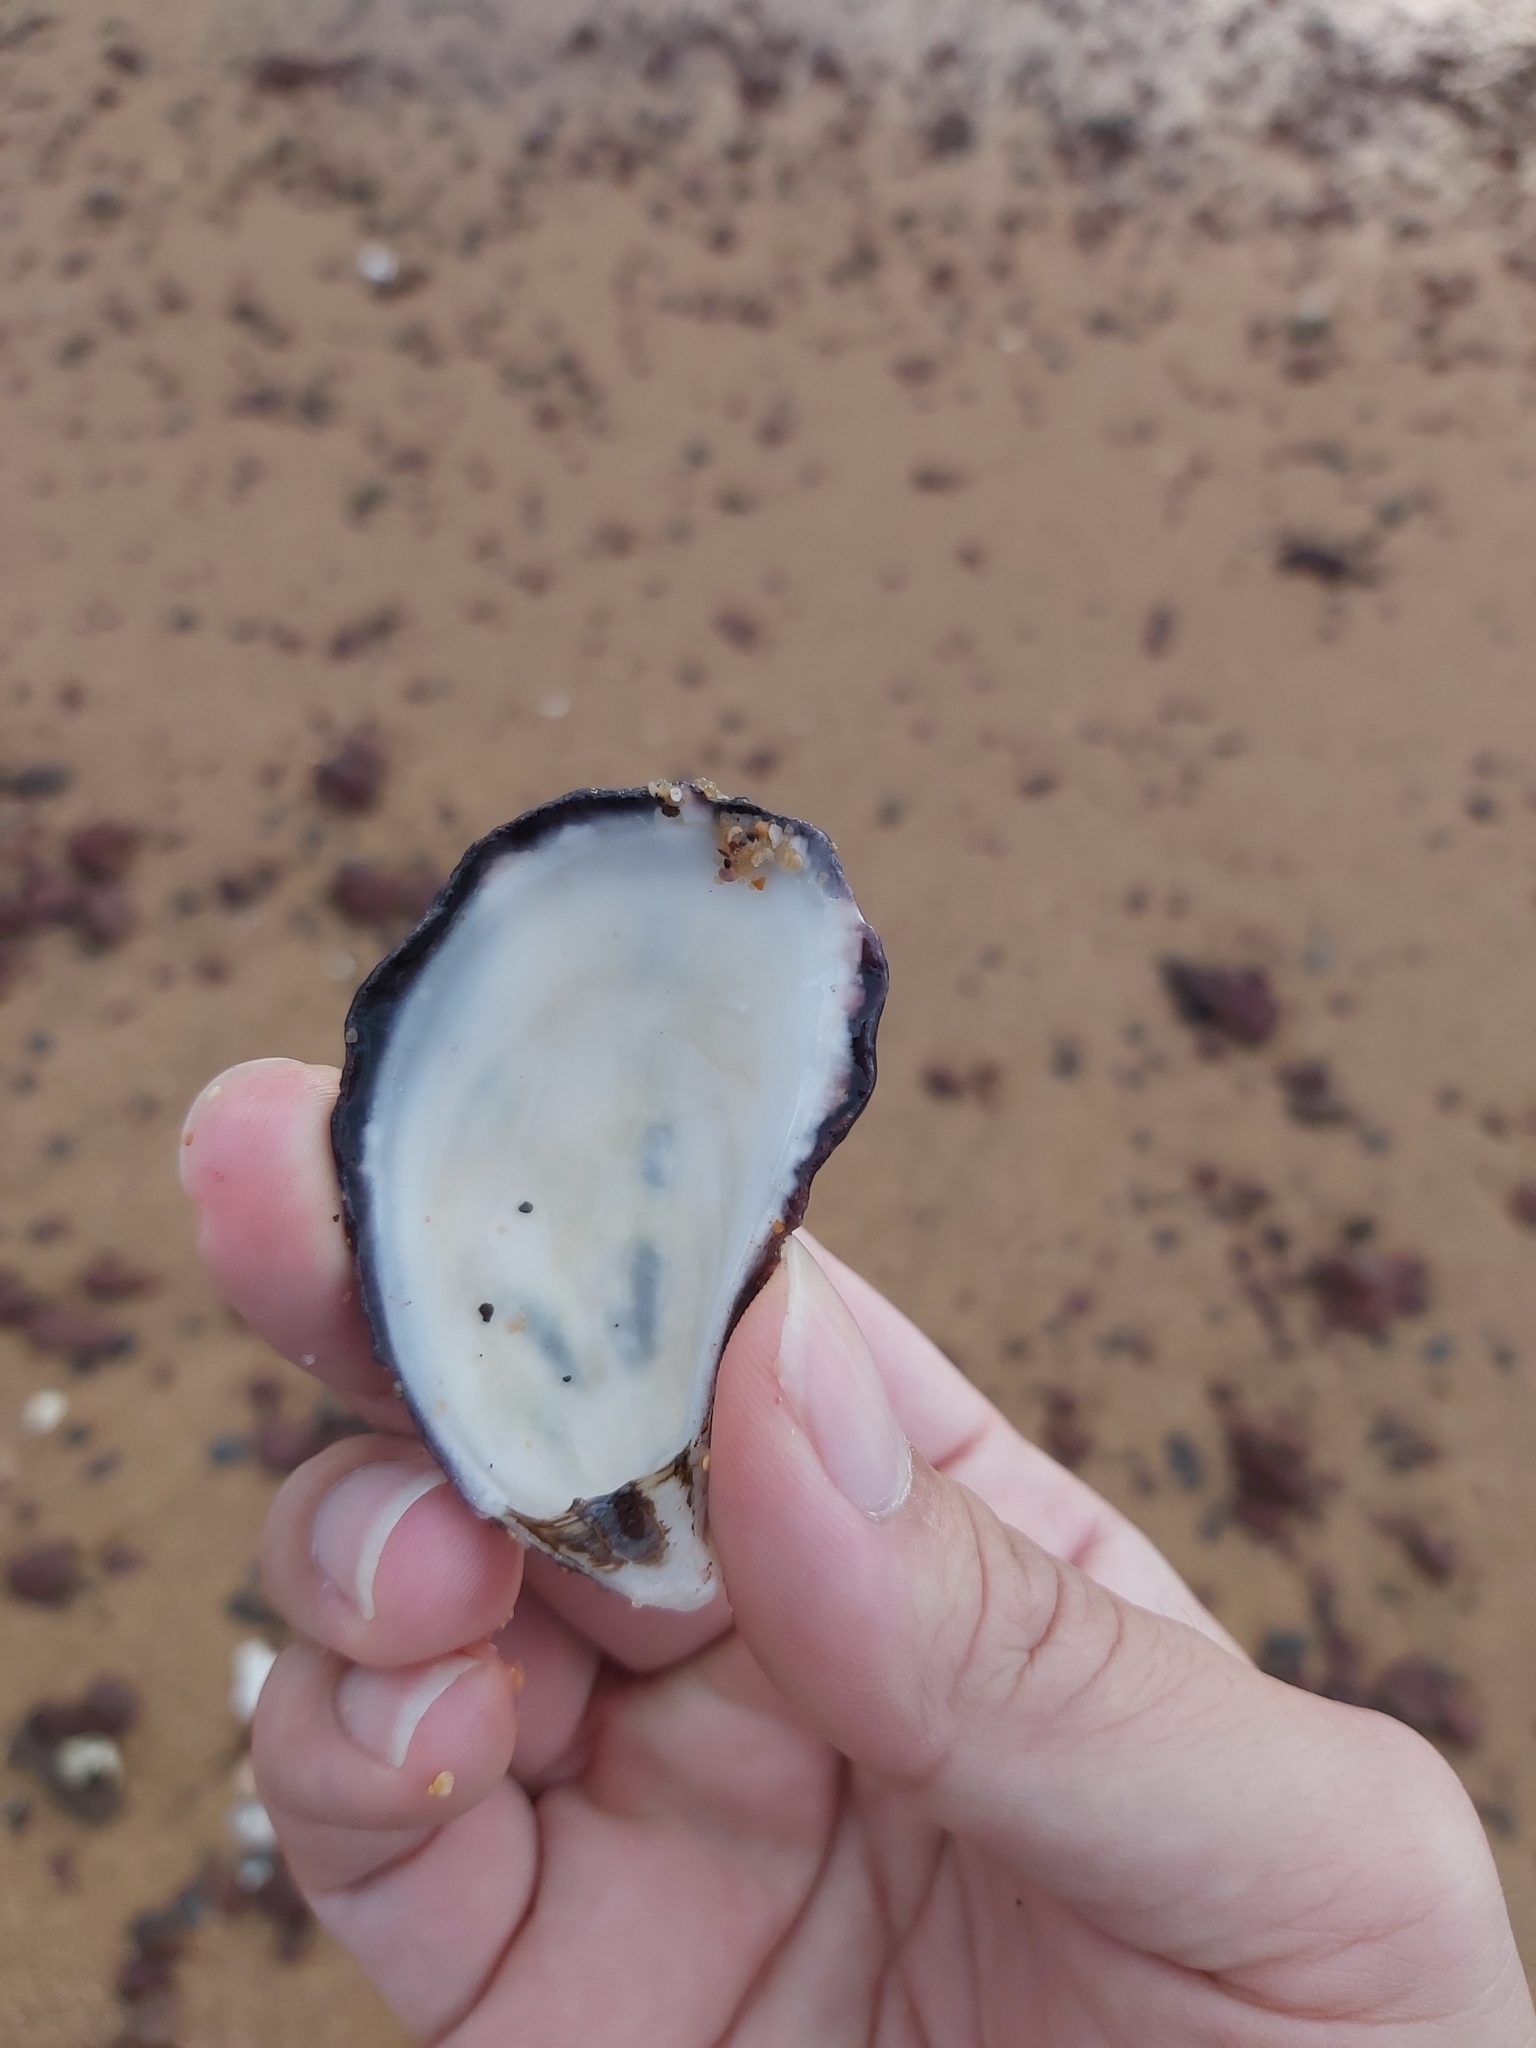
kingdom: Animalia
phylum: Mollusca
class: Bivalvia
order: Ostreida
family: Ostreidae
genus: Saccostrea
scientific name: Saccostrea glomerata
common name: Sydney cupped oyster
